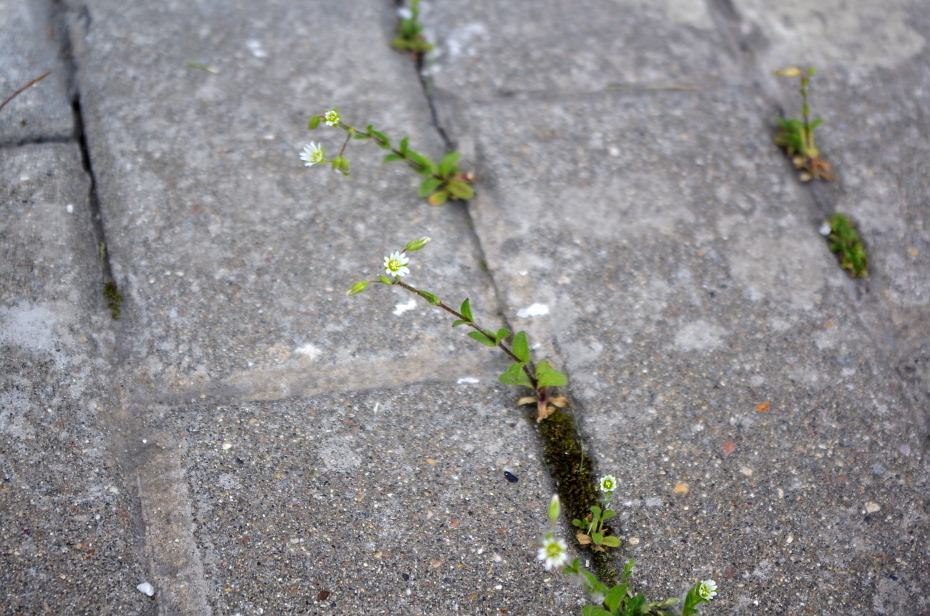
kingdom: Plantae
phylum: Tracheophyta
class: Magnoliopsida
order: Caryophyllales
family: Caryophyllaceae
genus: Cerastium
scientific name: Cerastium holosteoides
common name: Big chickweed
